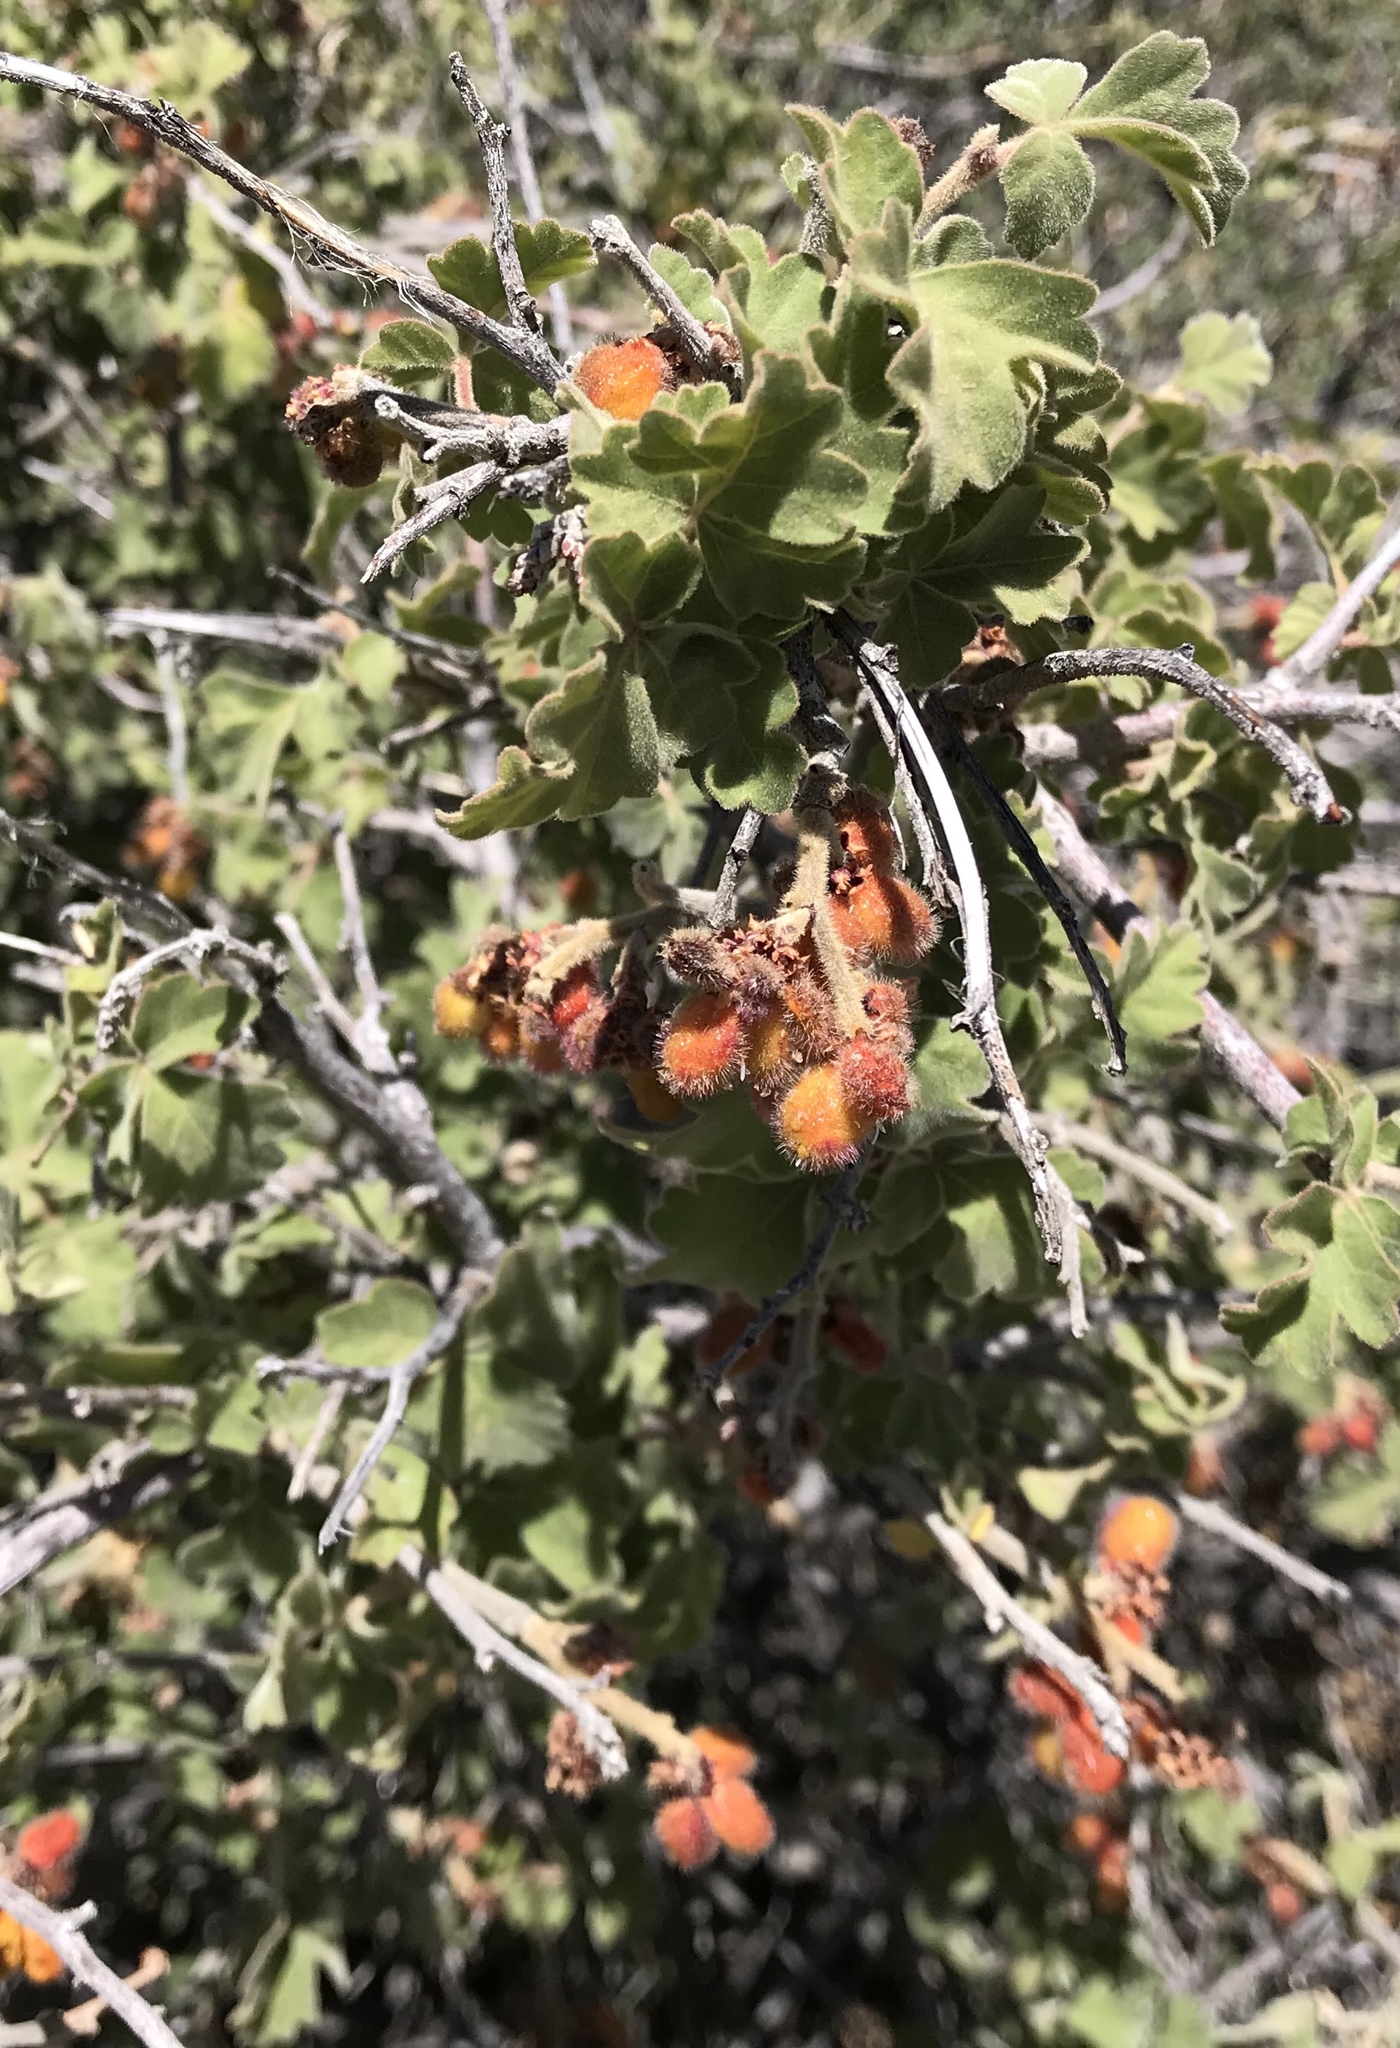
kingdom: Plantae
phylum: Tracheophyta
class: Magnoliopsida
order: Sapindales
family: Anacardiaceae
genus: Rhus
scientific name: Rhus aromatica
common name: Aromatic sumac
